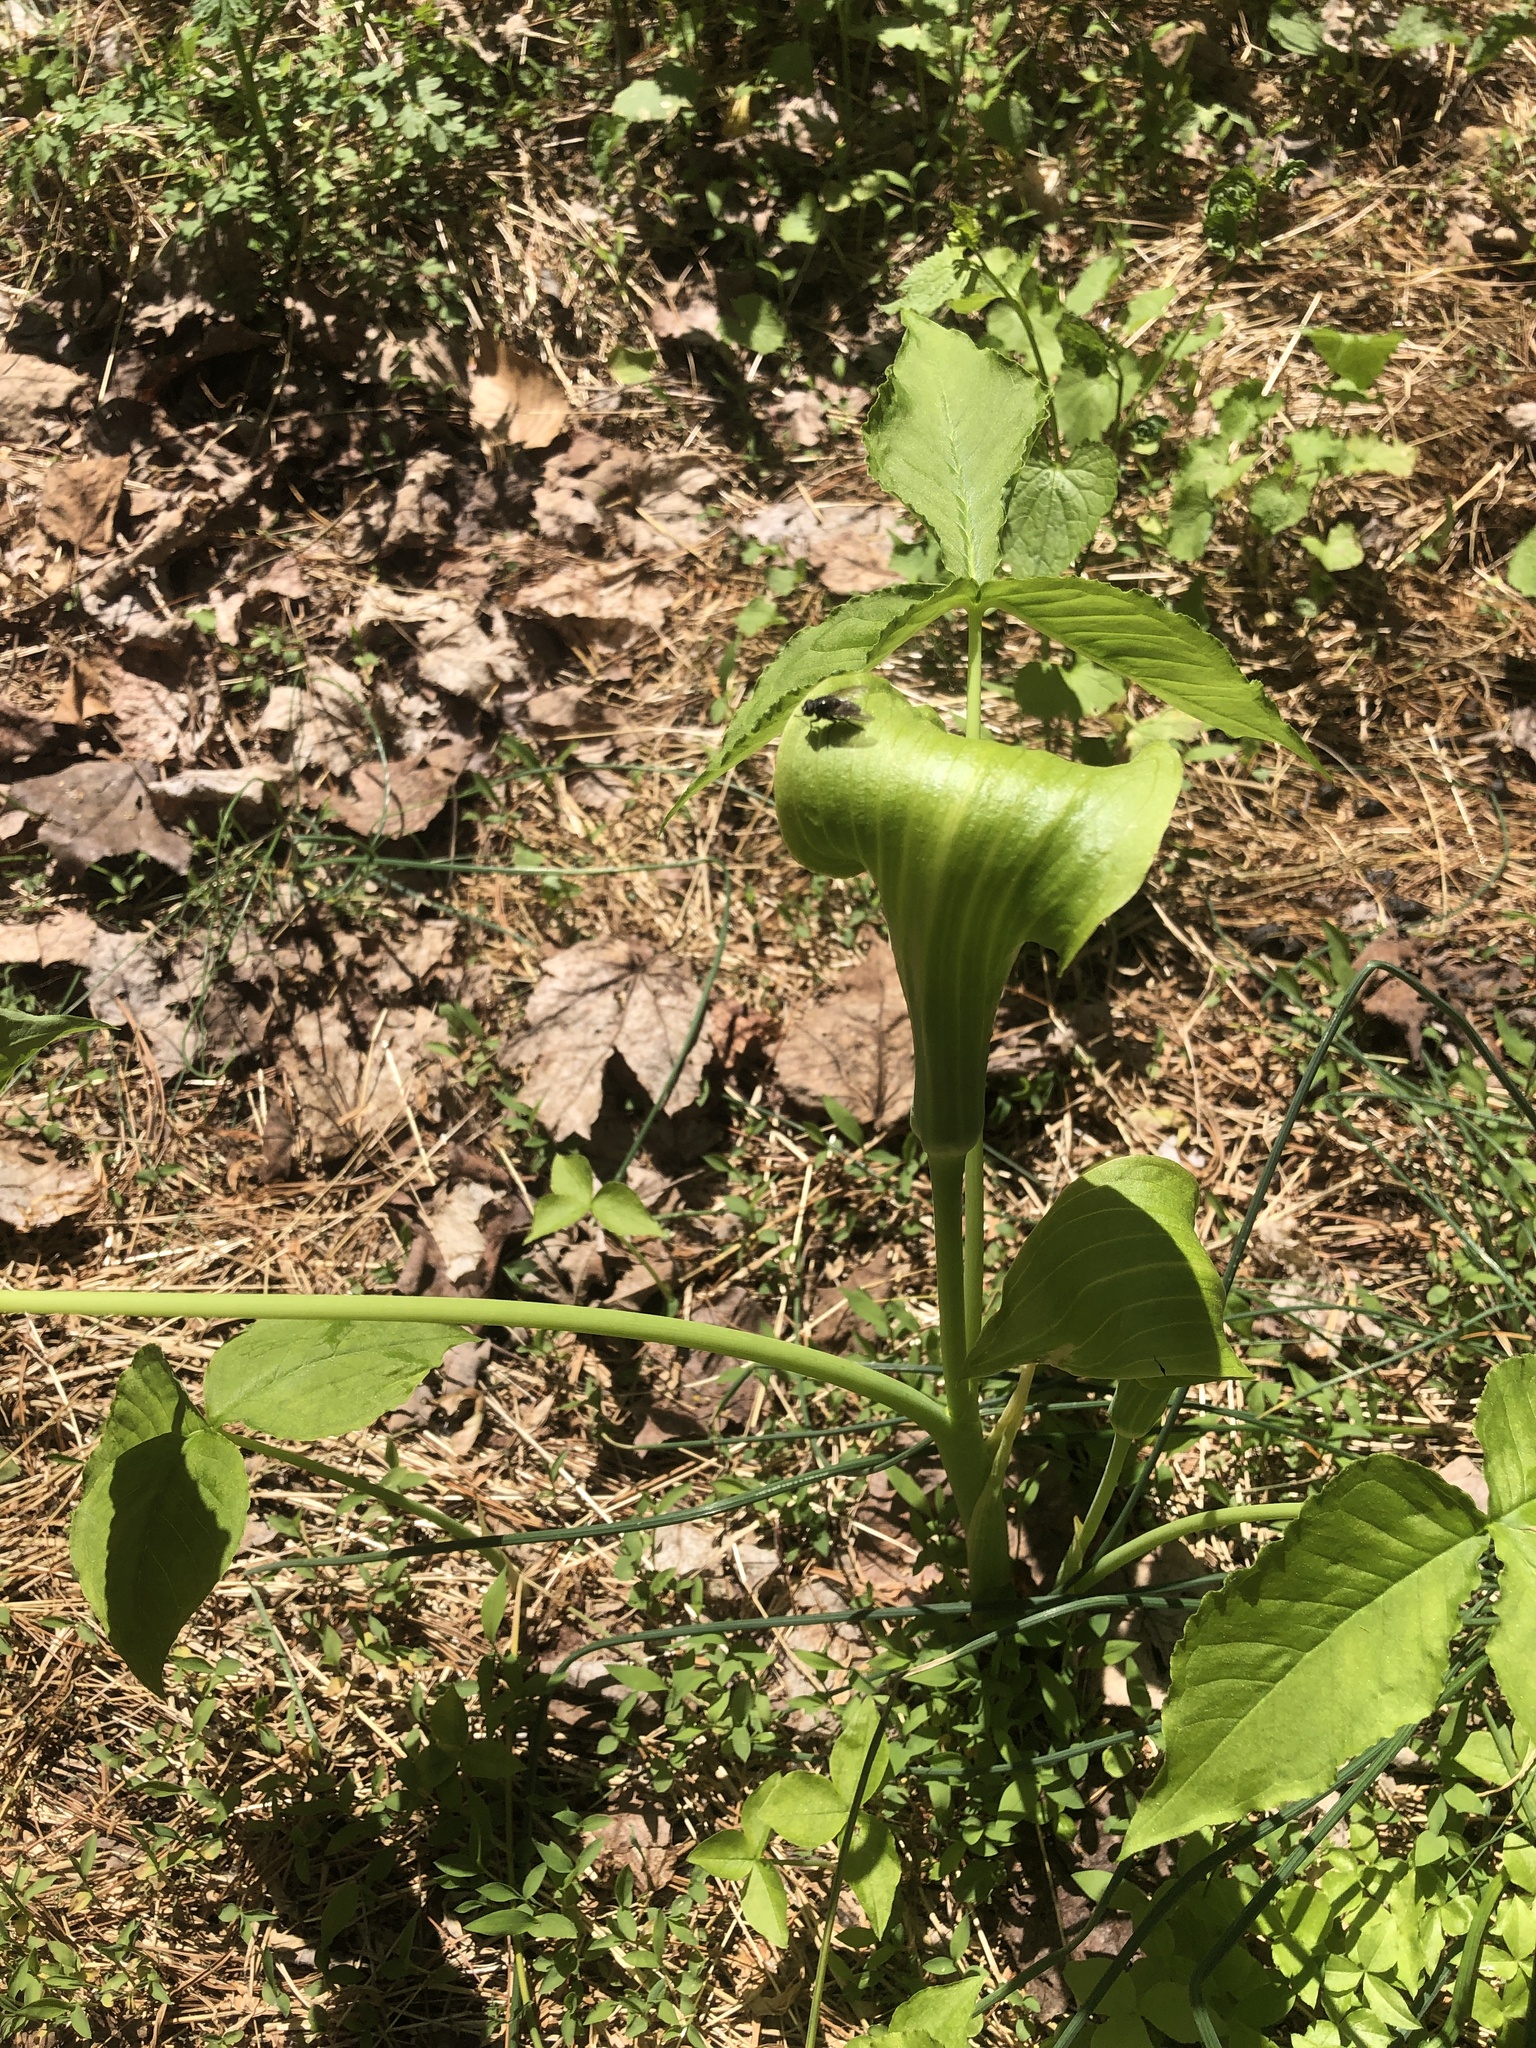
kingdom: Plantae
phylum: Tracheophyta
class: Liliopsida
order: Alismatales
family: Araceae
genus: Arisaema
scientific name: Arisaema triphyllum
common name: Jack-in-the-pulpit
